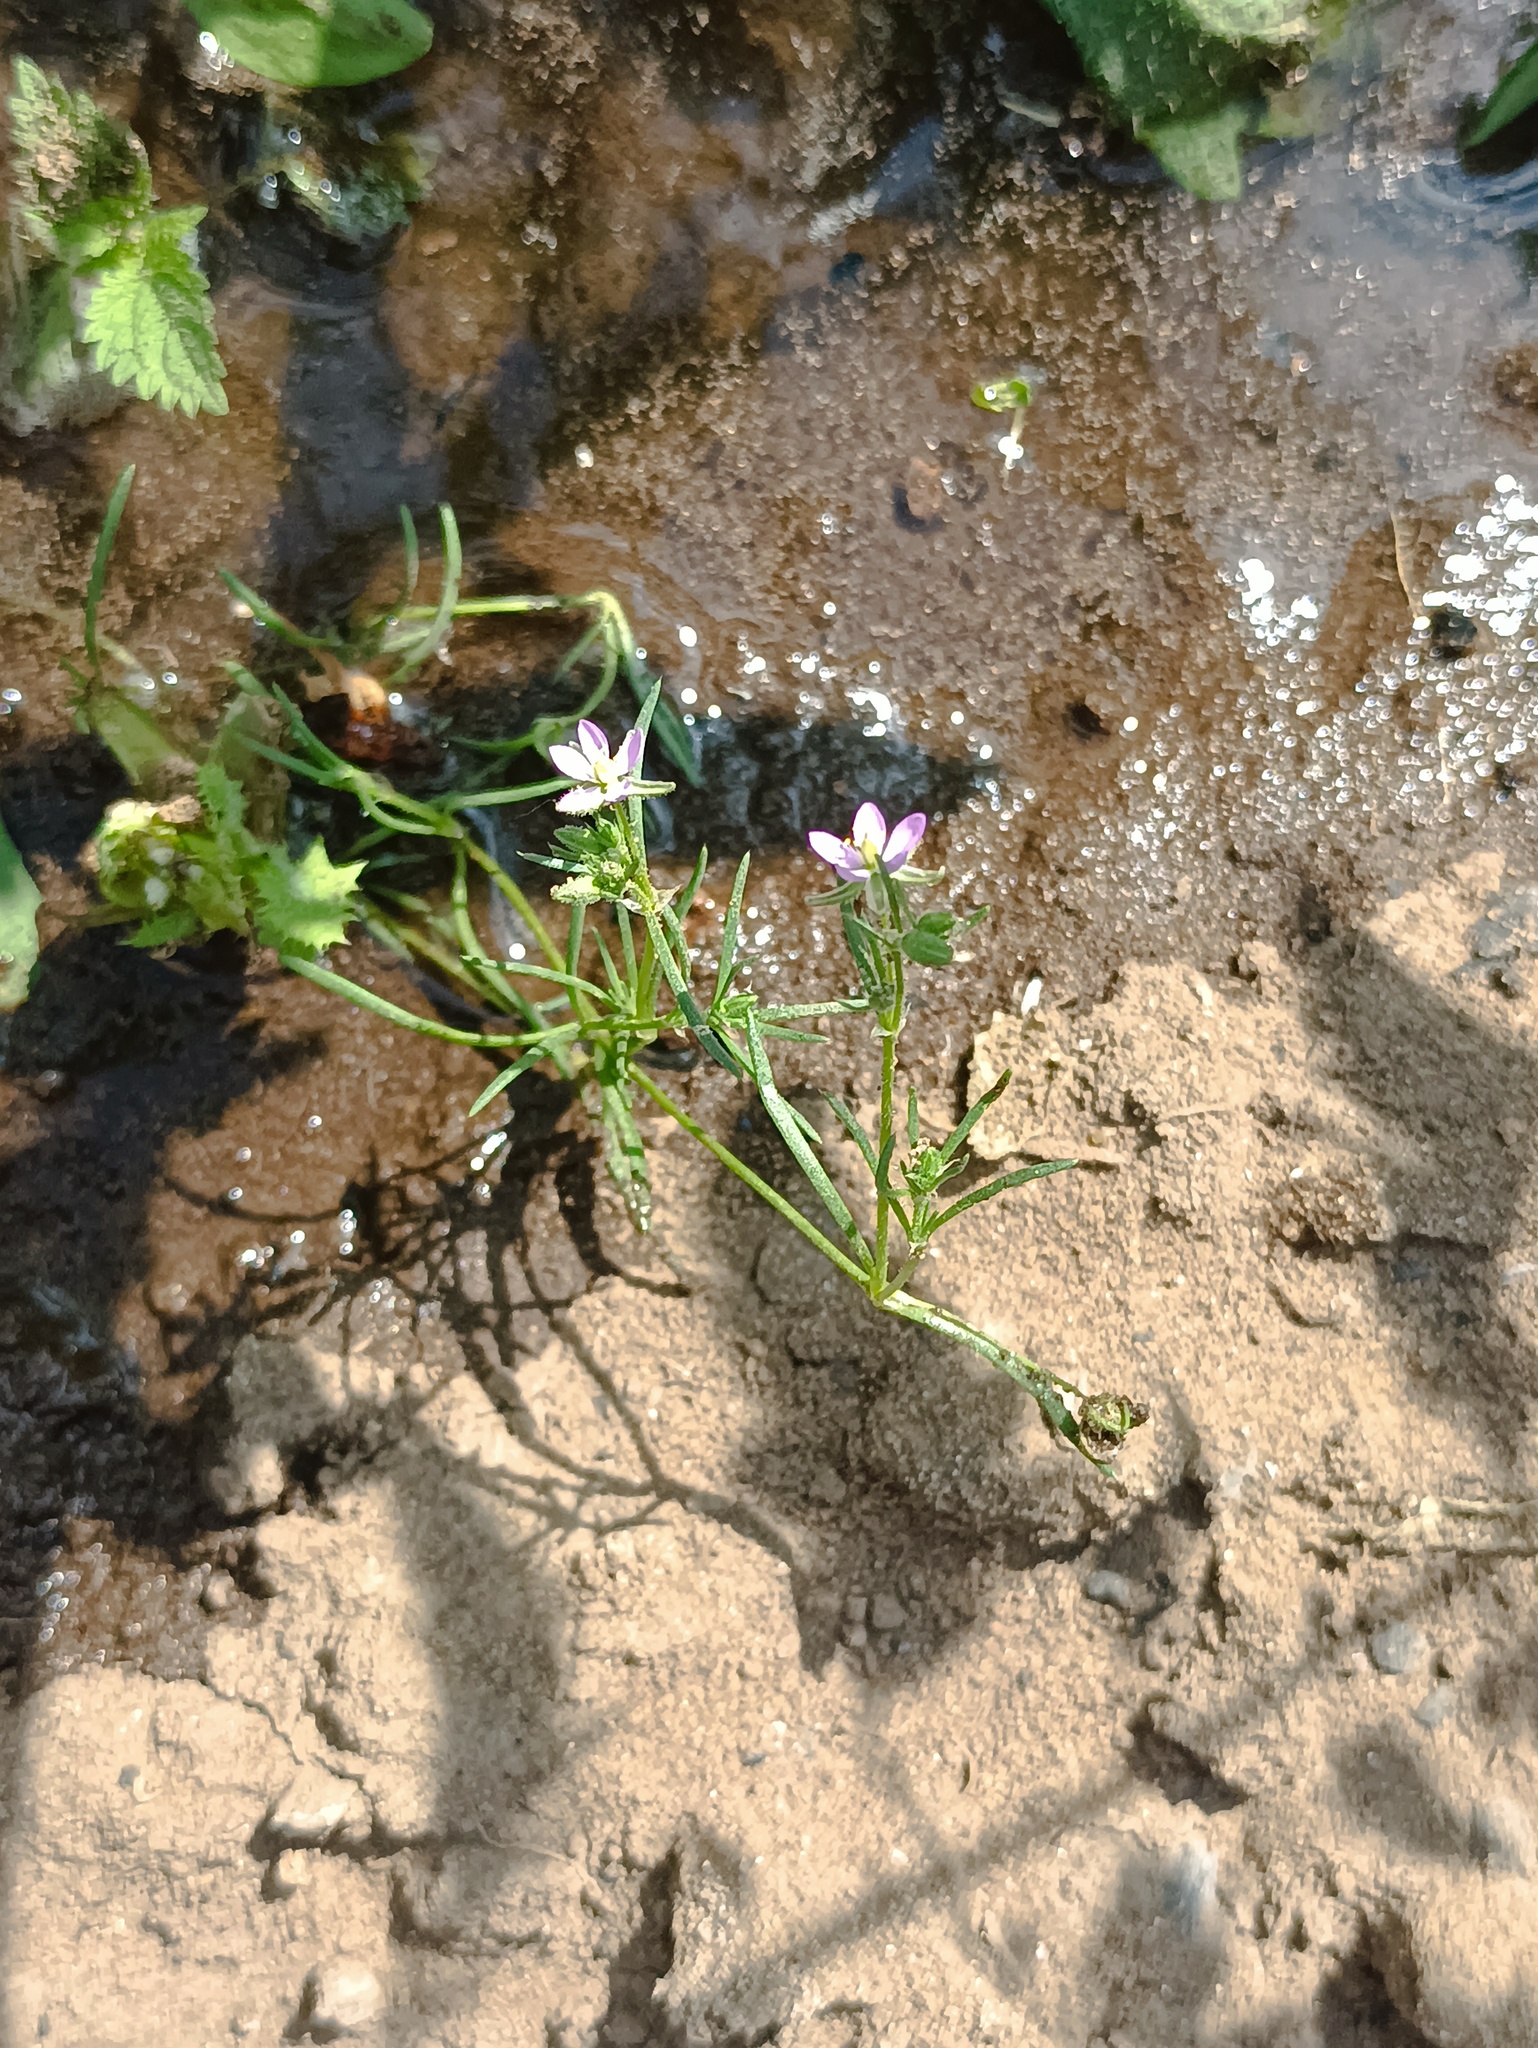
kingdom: Plantae
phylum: Tracheophyta
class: Magnoliopsida
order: Caryophyllales
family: Caryophyllaceae
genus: Spergularia
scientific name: Spergularia rubra
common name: Red sand-spurrey
